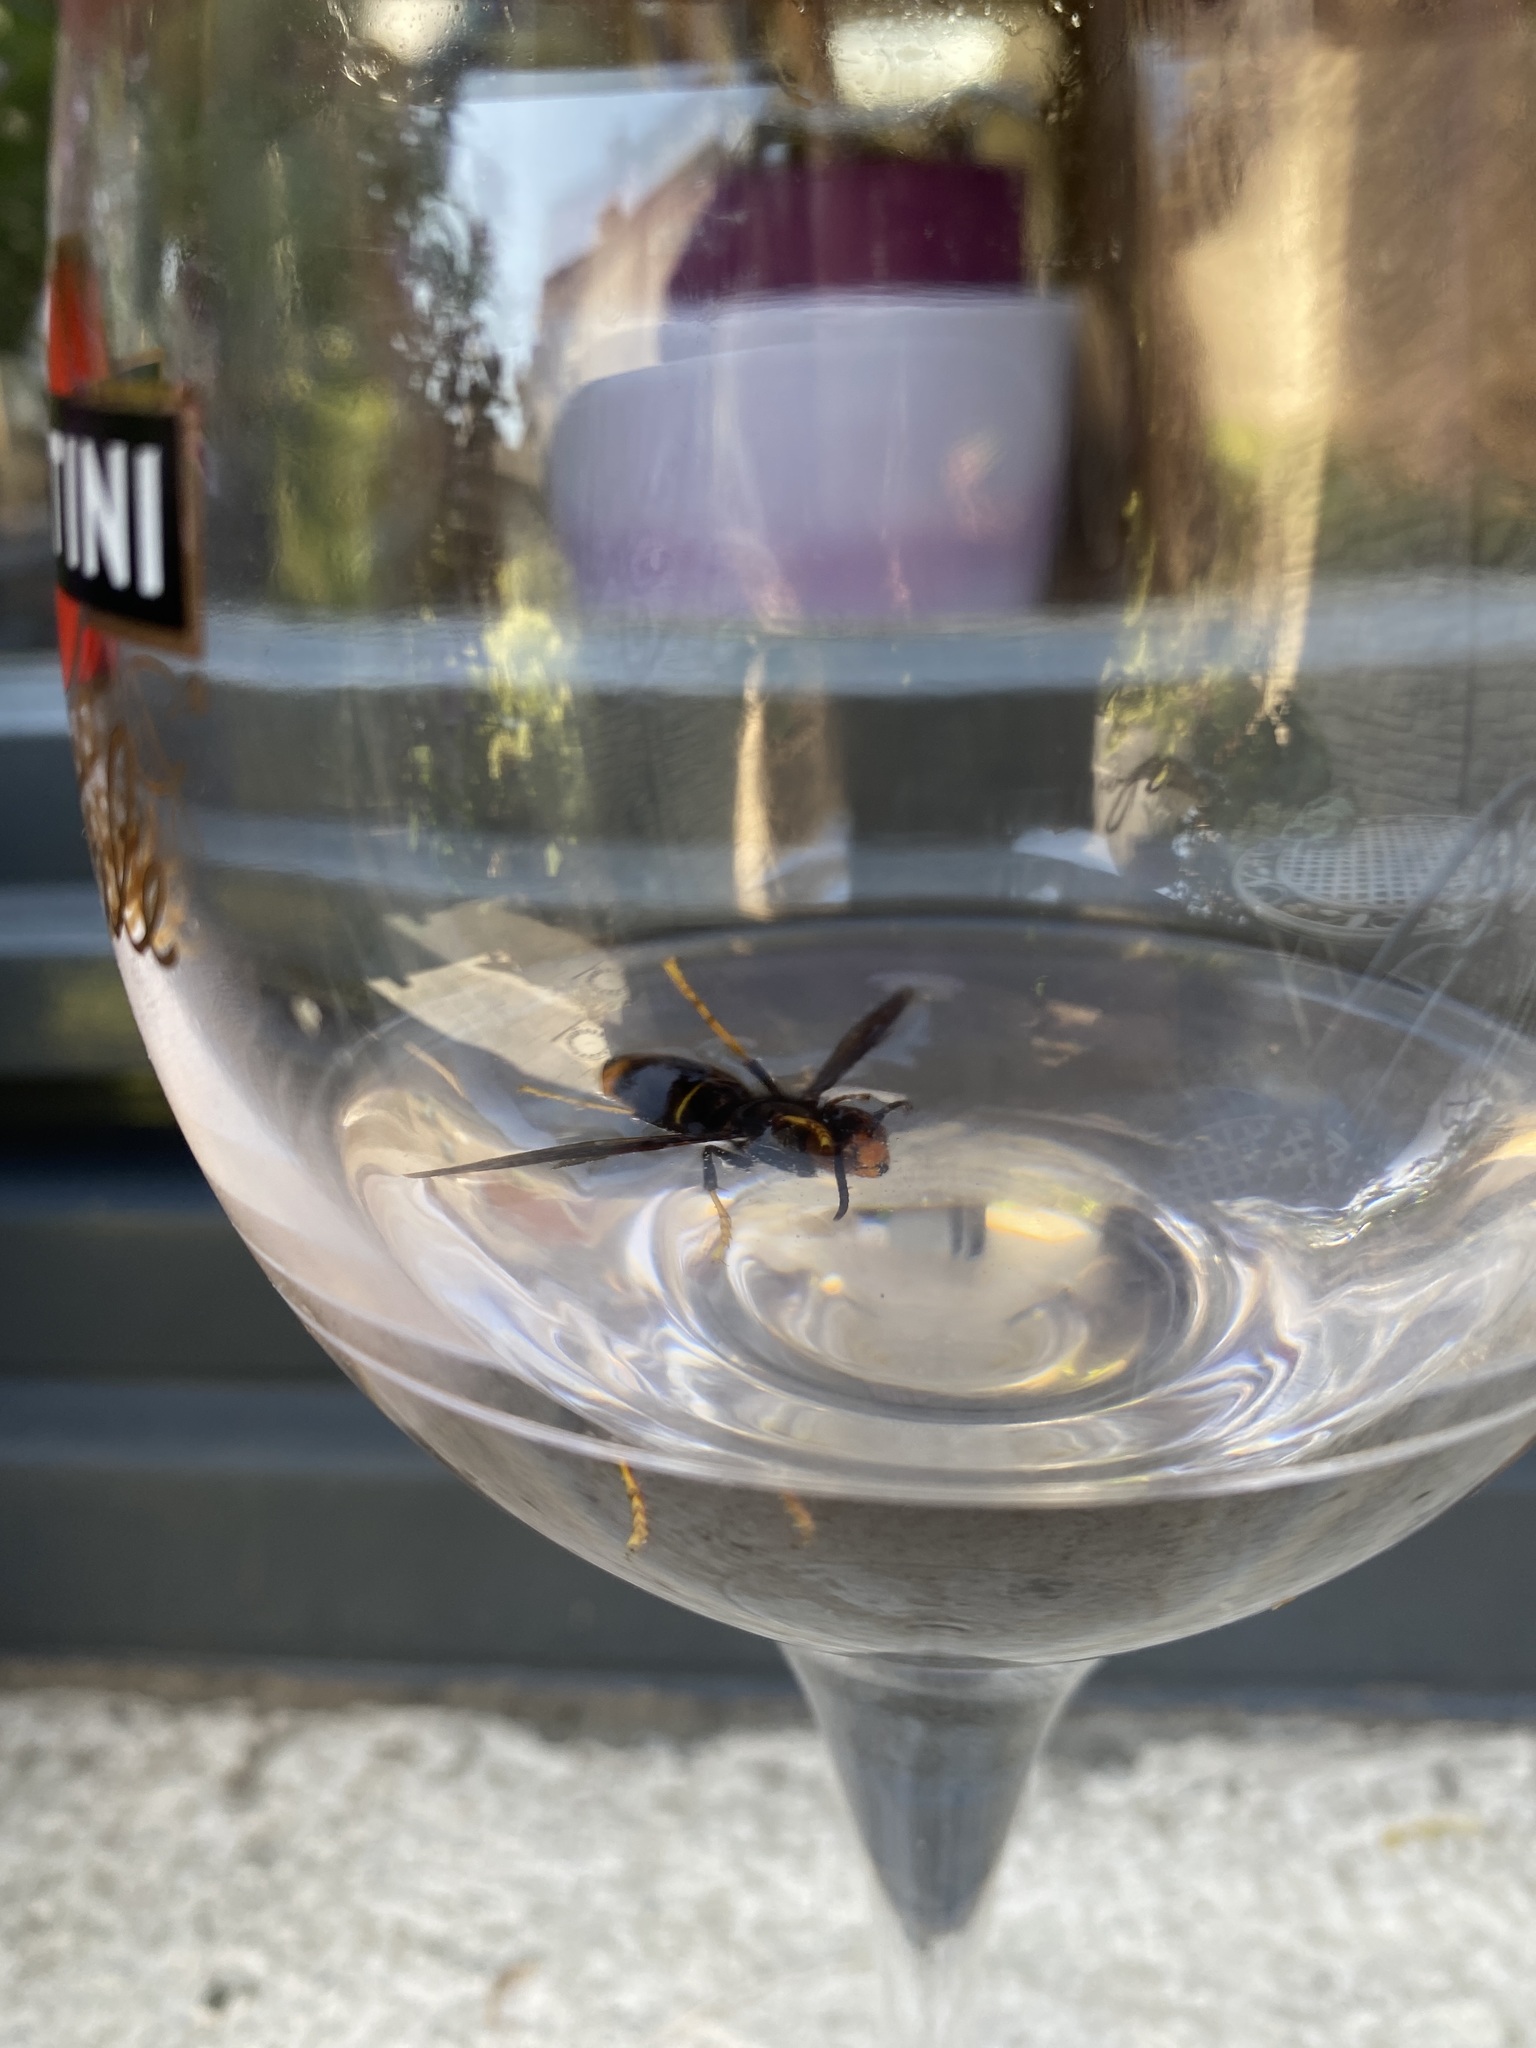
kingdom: Animalia
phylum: Arthropoda
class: Insecta
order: Hymenoptera
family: Vespidae
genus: Vespa
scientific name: Vespa velutina
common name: Asian hornet
